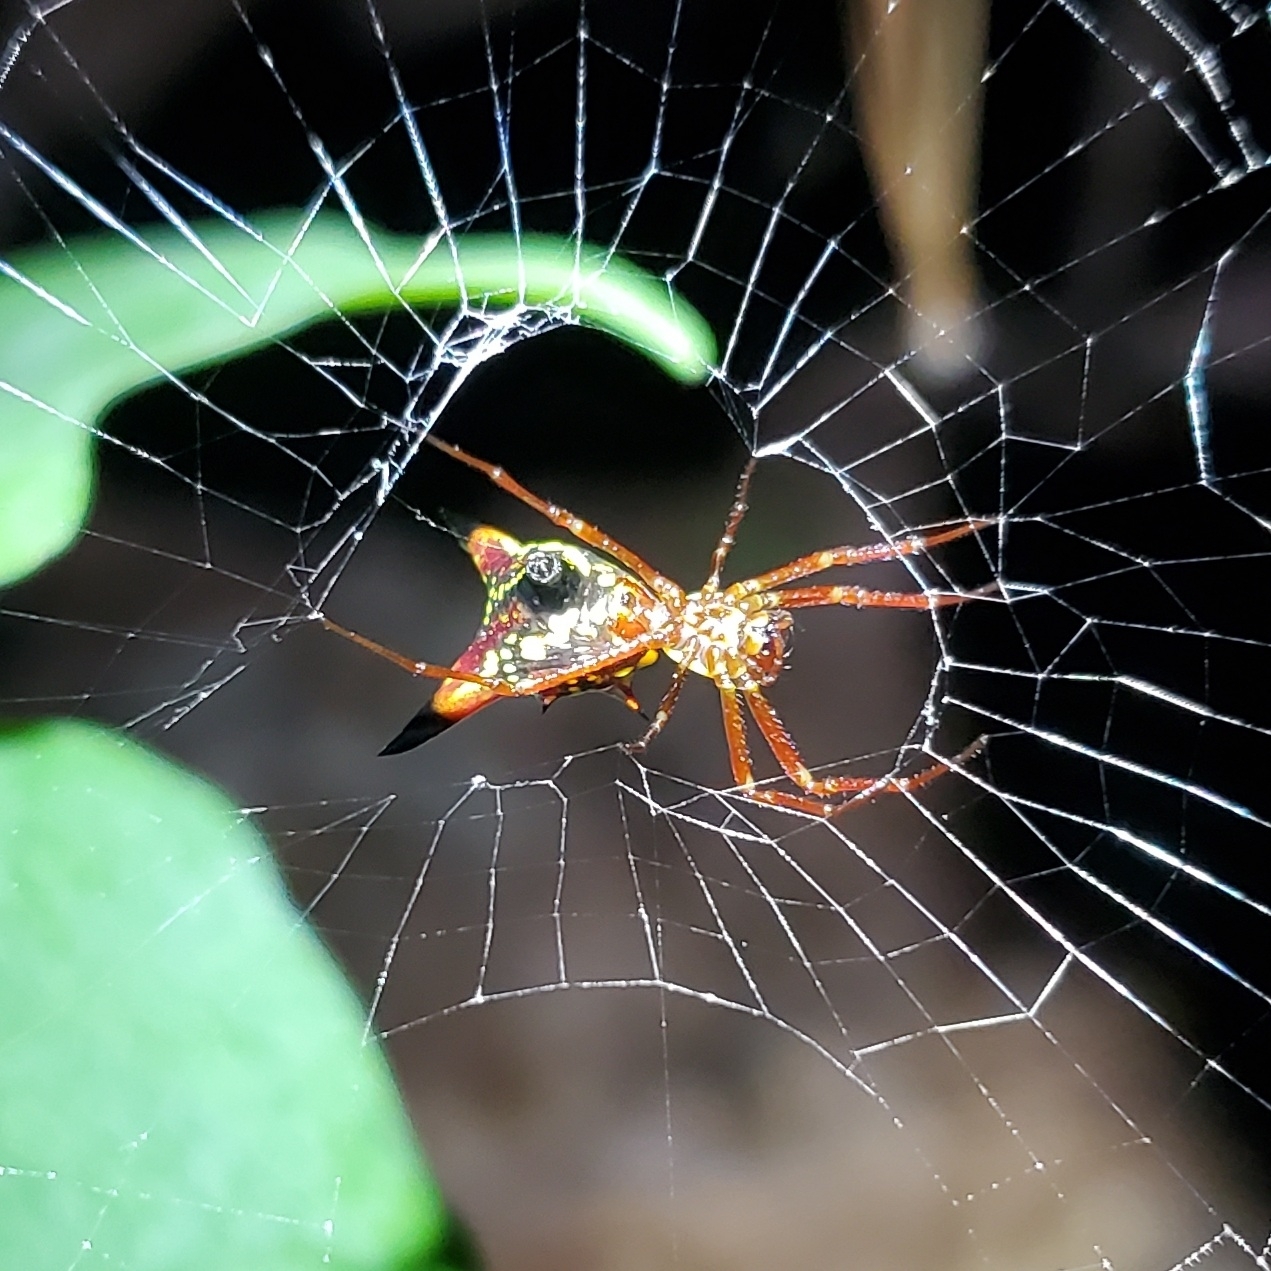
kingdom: Animalia
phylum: Arthropoda
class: Arachnida
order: Araneae
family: Araneidae
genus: Micrathena
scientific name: Micrathena sagittata
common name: Orb weavers
